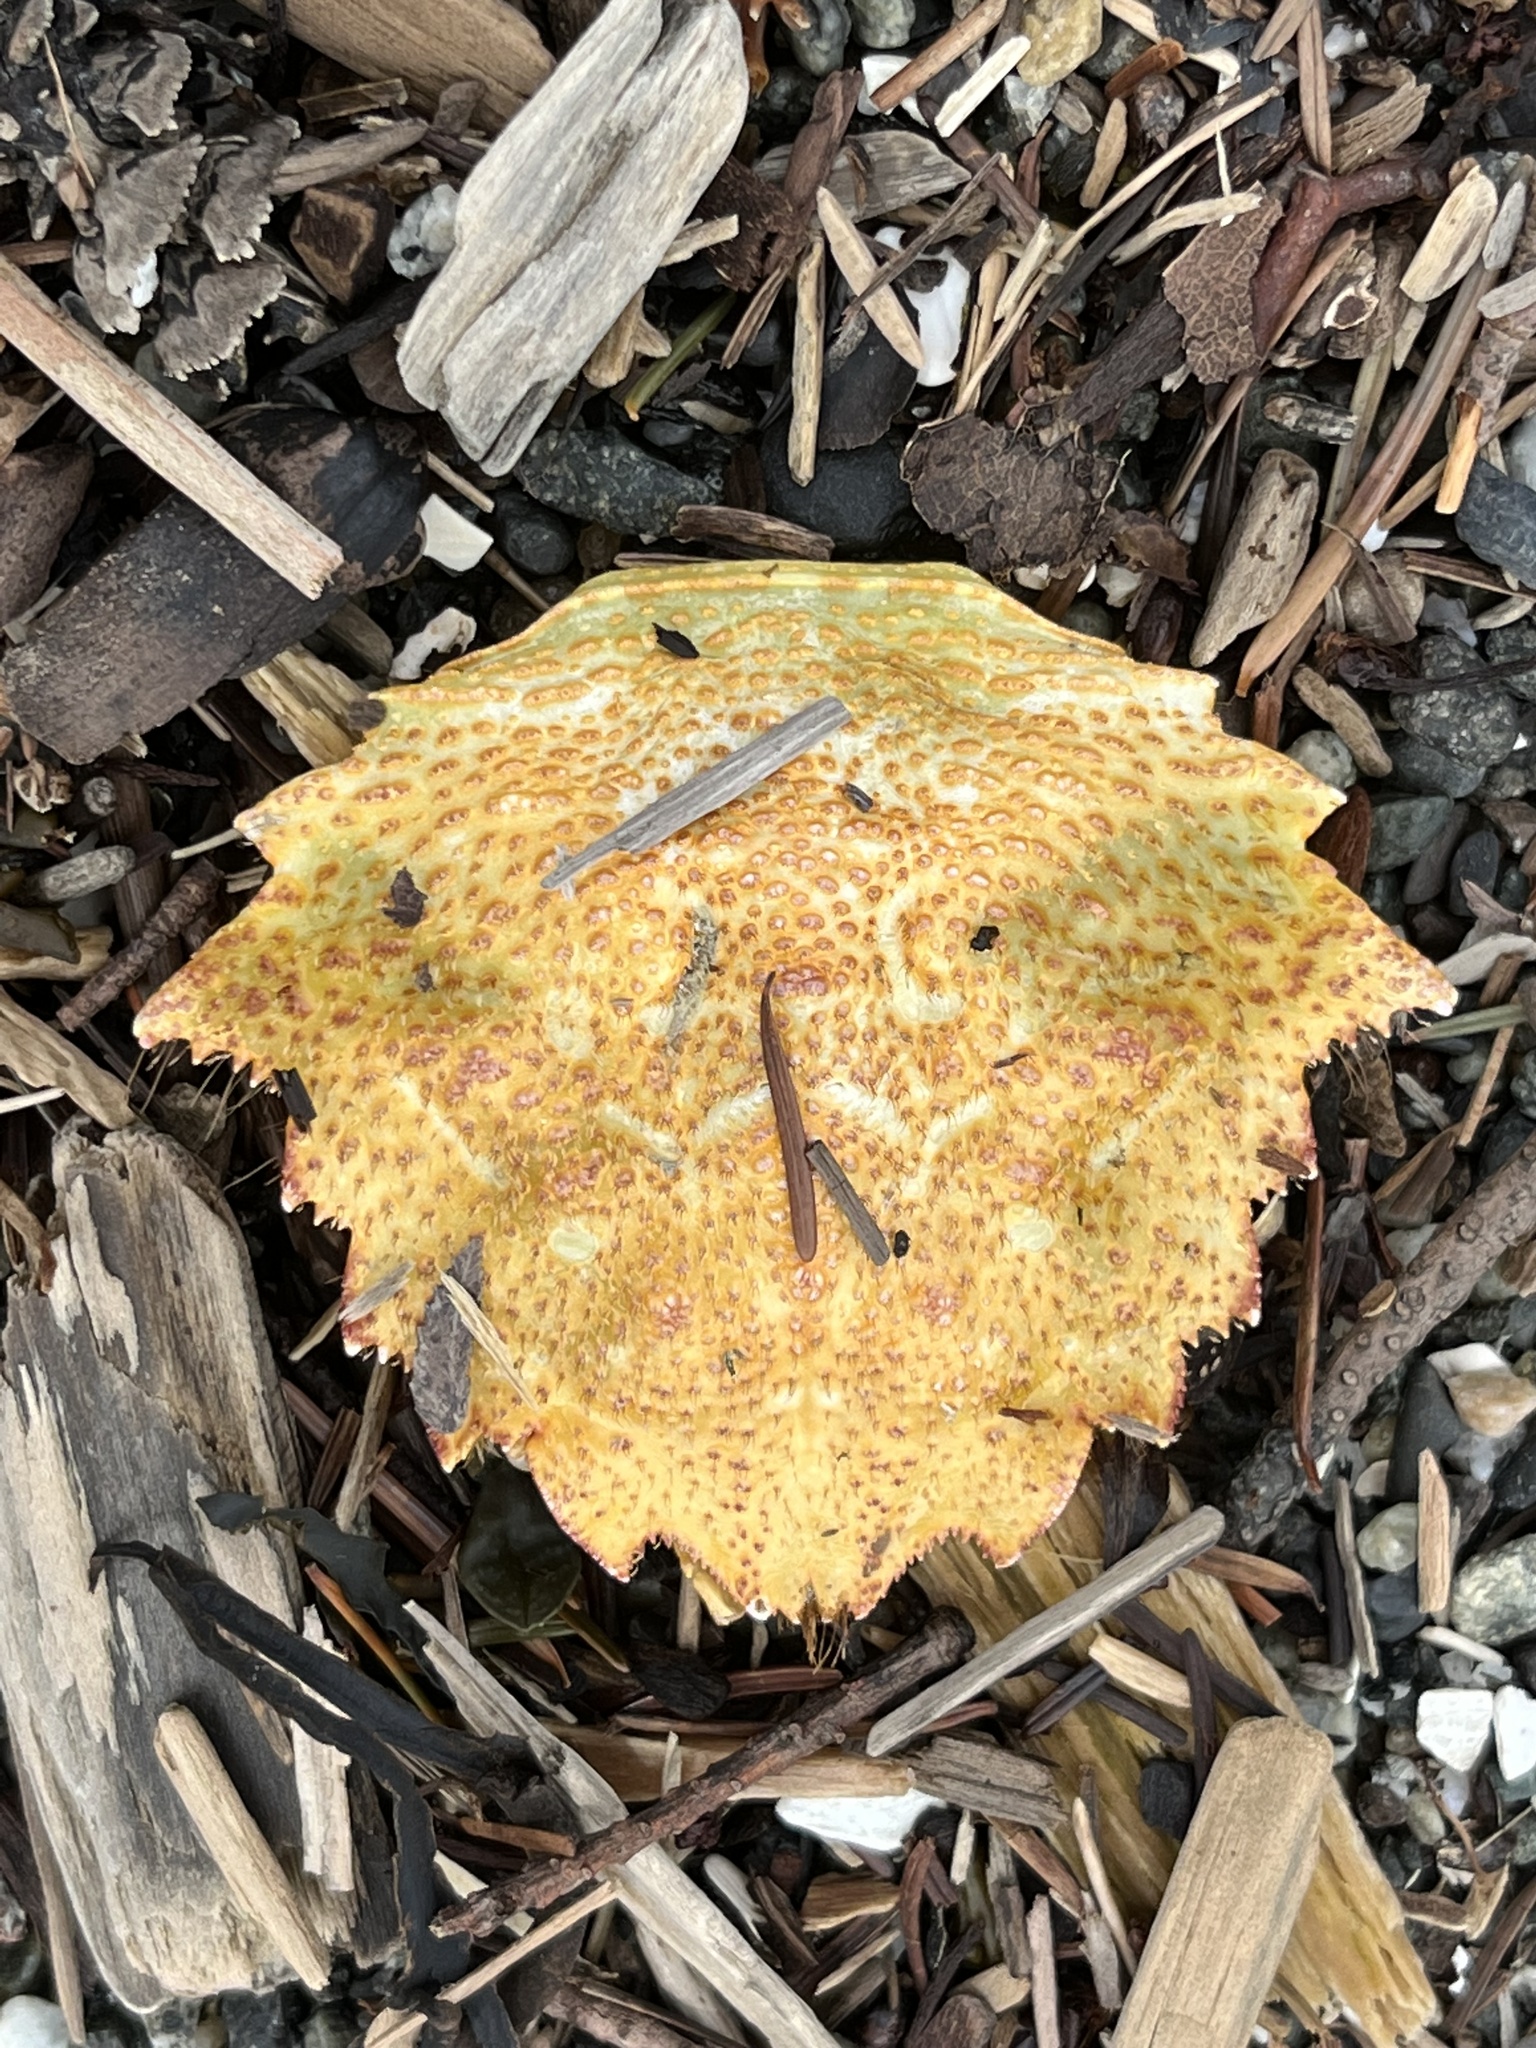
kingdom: Animalia
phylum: Arthropoda
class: Malacostraca
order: Decapoda
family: Cheiragonidae
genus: Telmessus
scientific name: Telmessus cheiragonus
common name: Helmet crab
